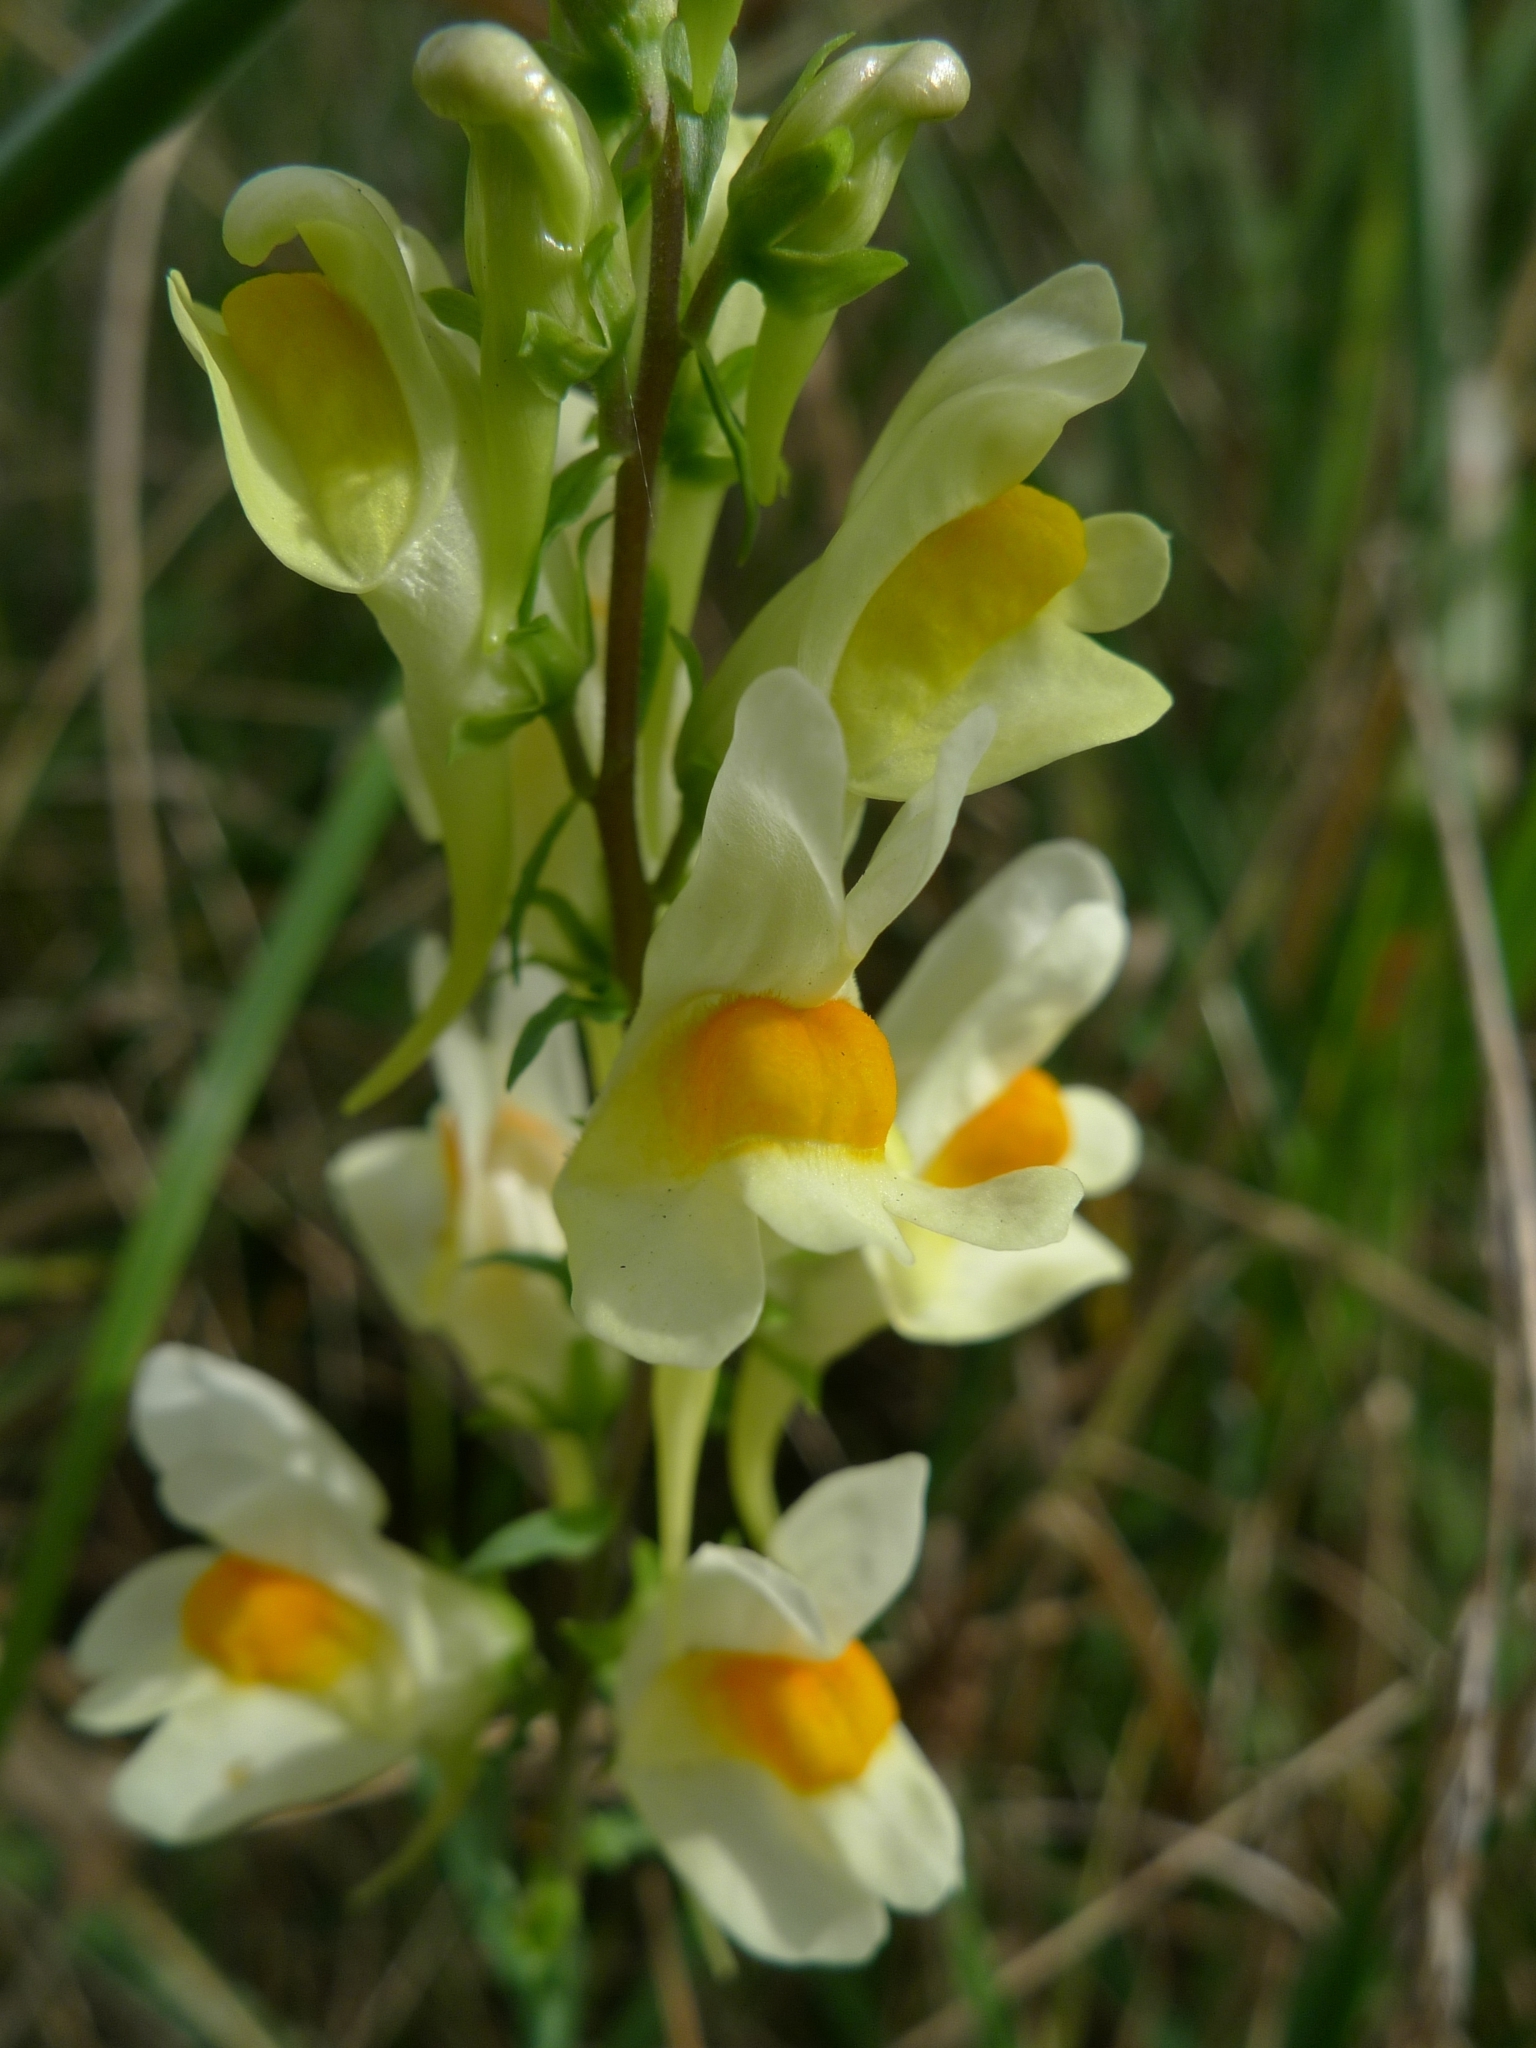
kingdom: Plantae
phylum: Tracheophyta
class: Magnoliopsida
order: Lamiales
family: Plantaginaceae
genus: Linaria
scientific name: Linaria vulgaris
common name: Butter and eggs
